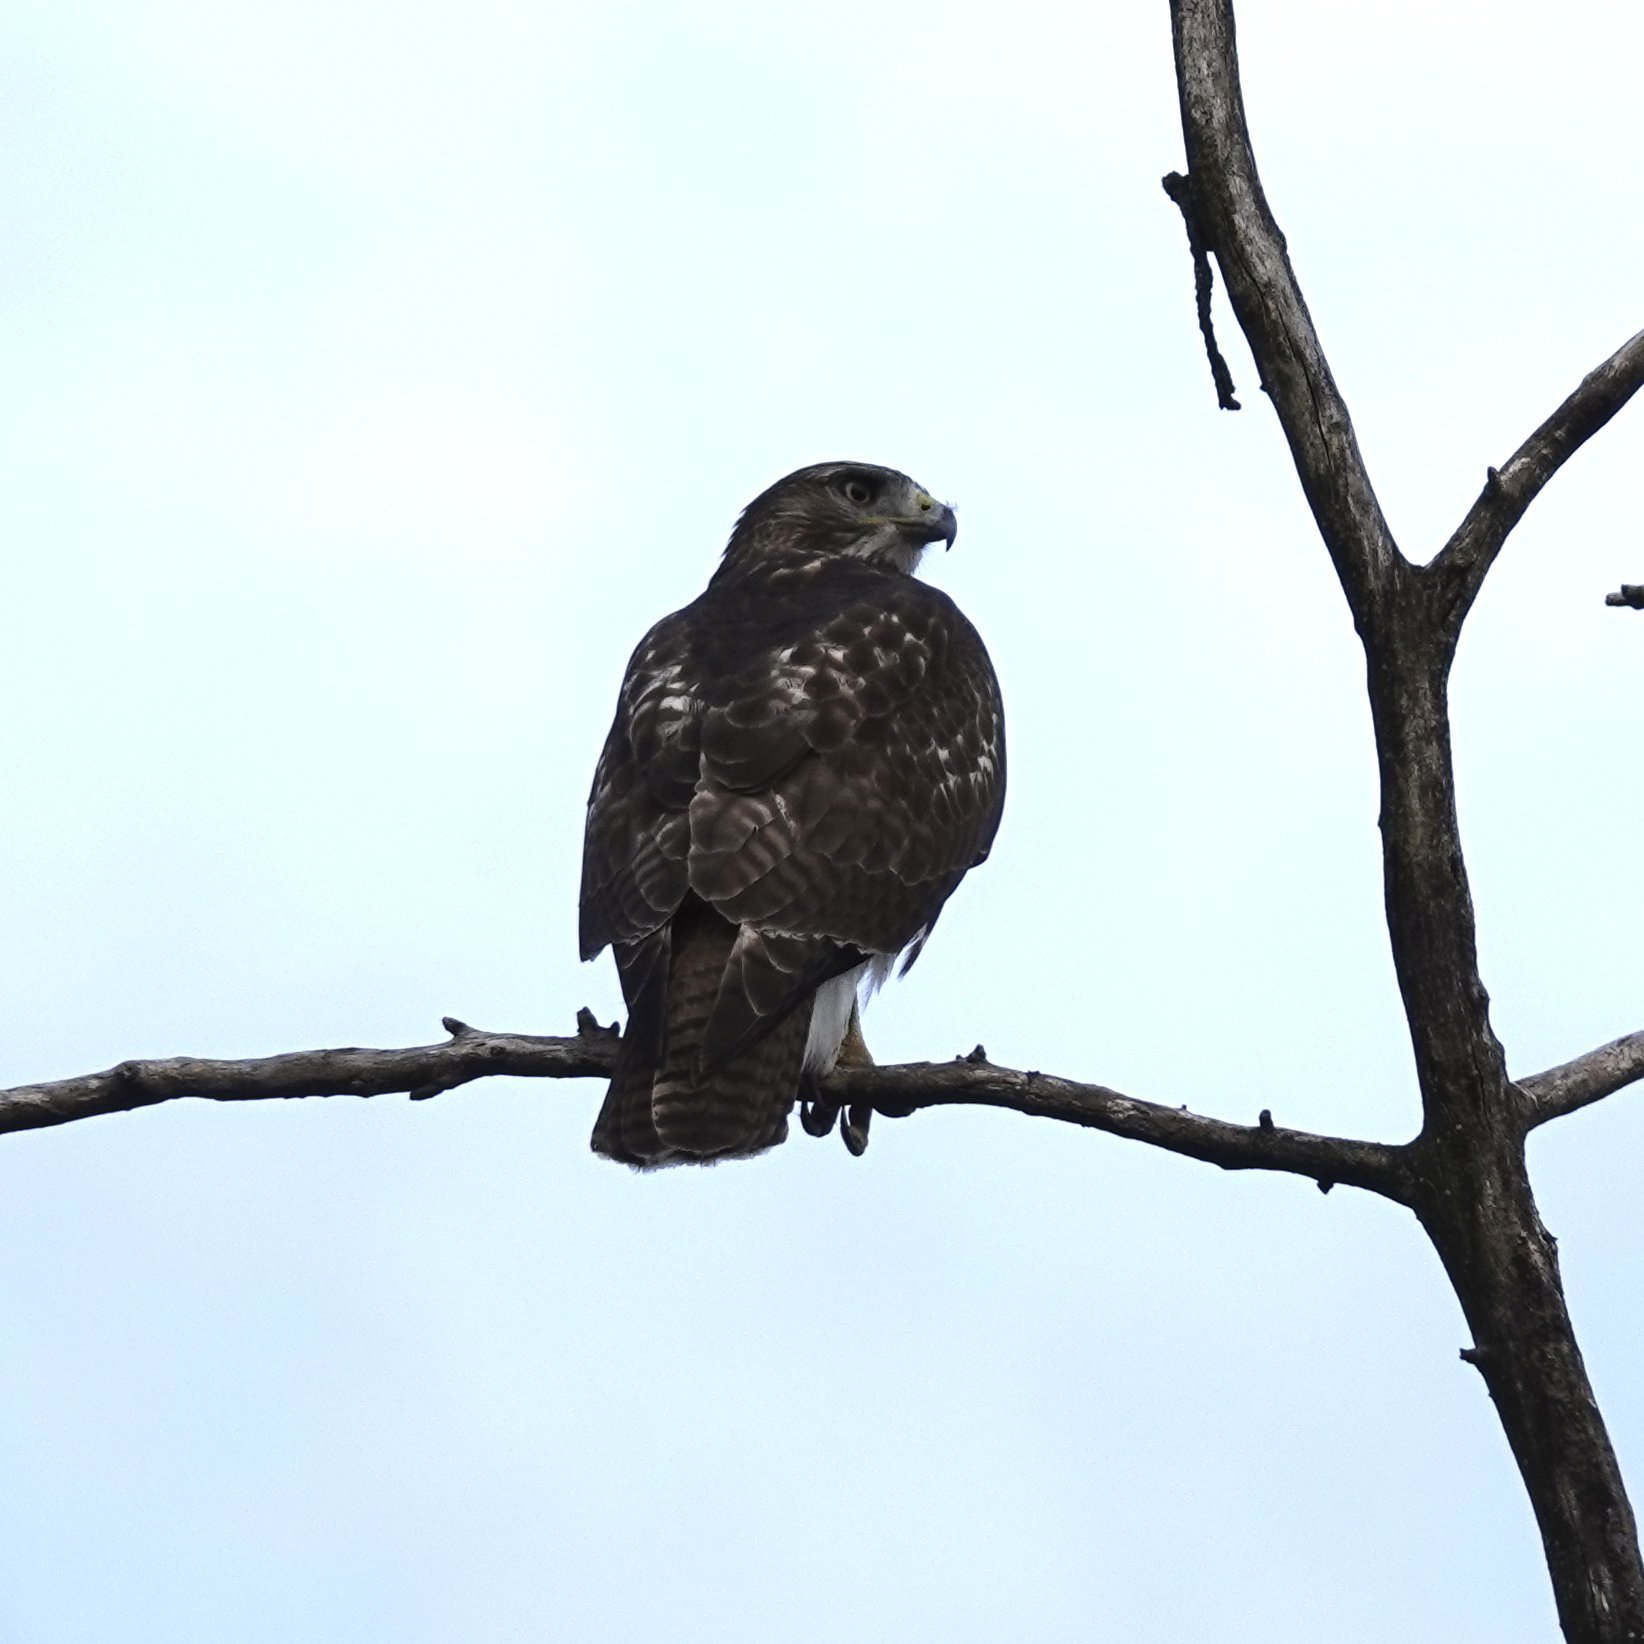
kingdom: Animalia
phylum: Chordata
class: Aves
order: Accipitriformes
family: Accipitridae
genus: Buteo
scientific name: Buteo jamaicensis
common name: Red-tailed hawk
